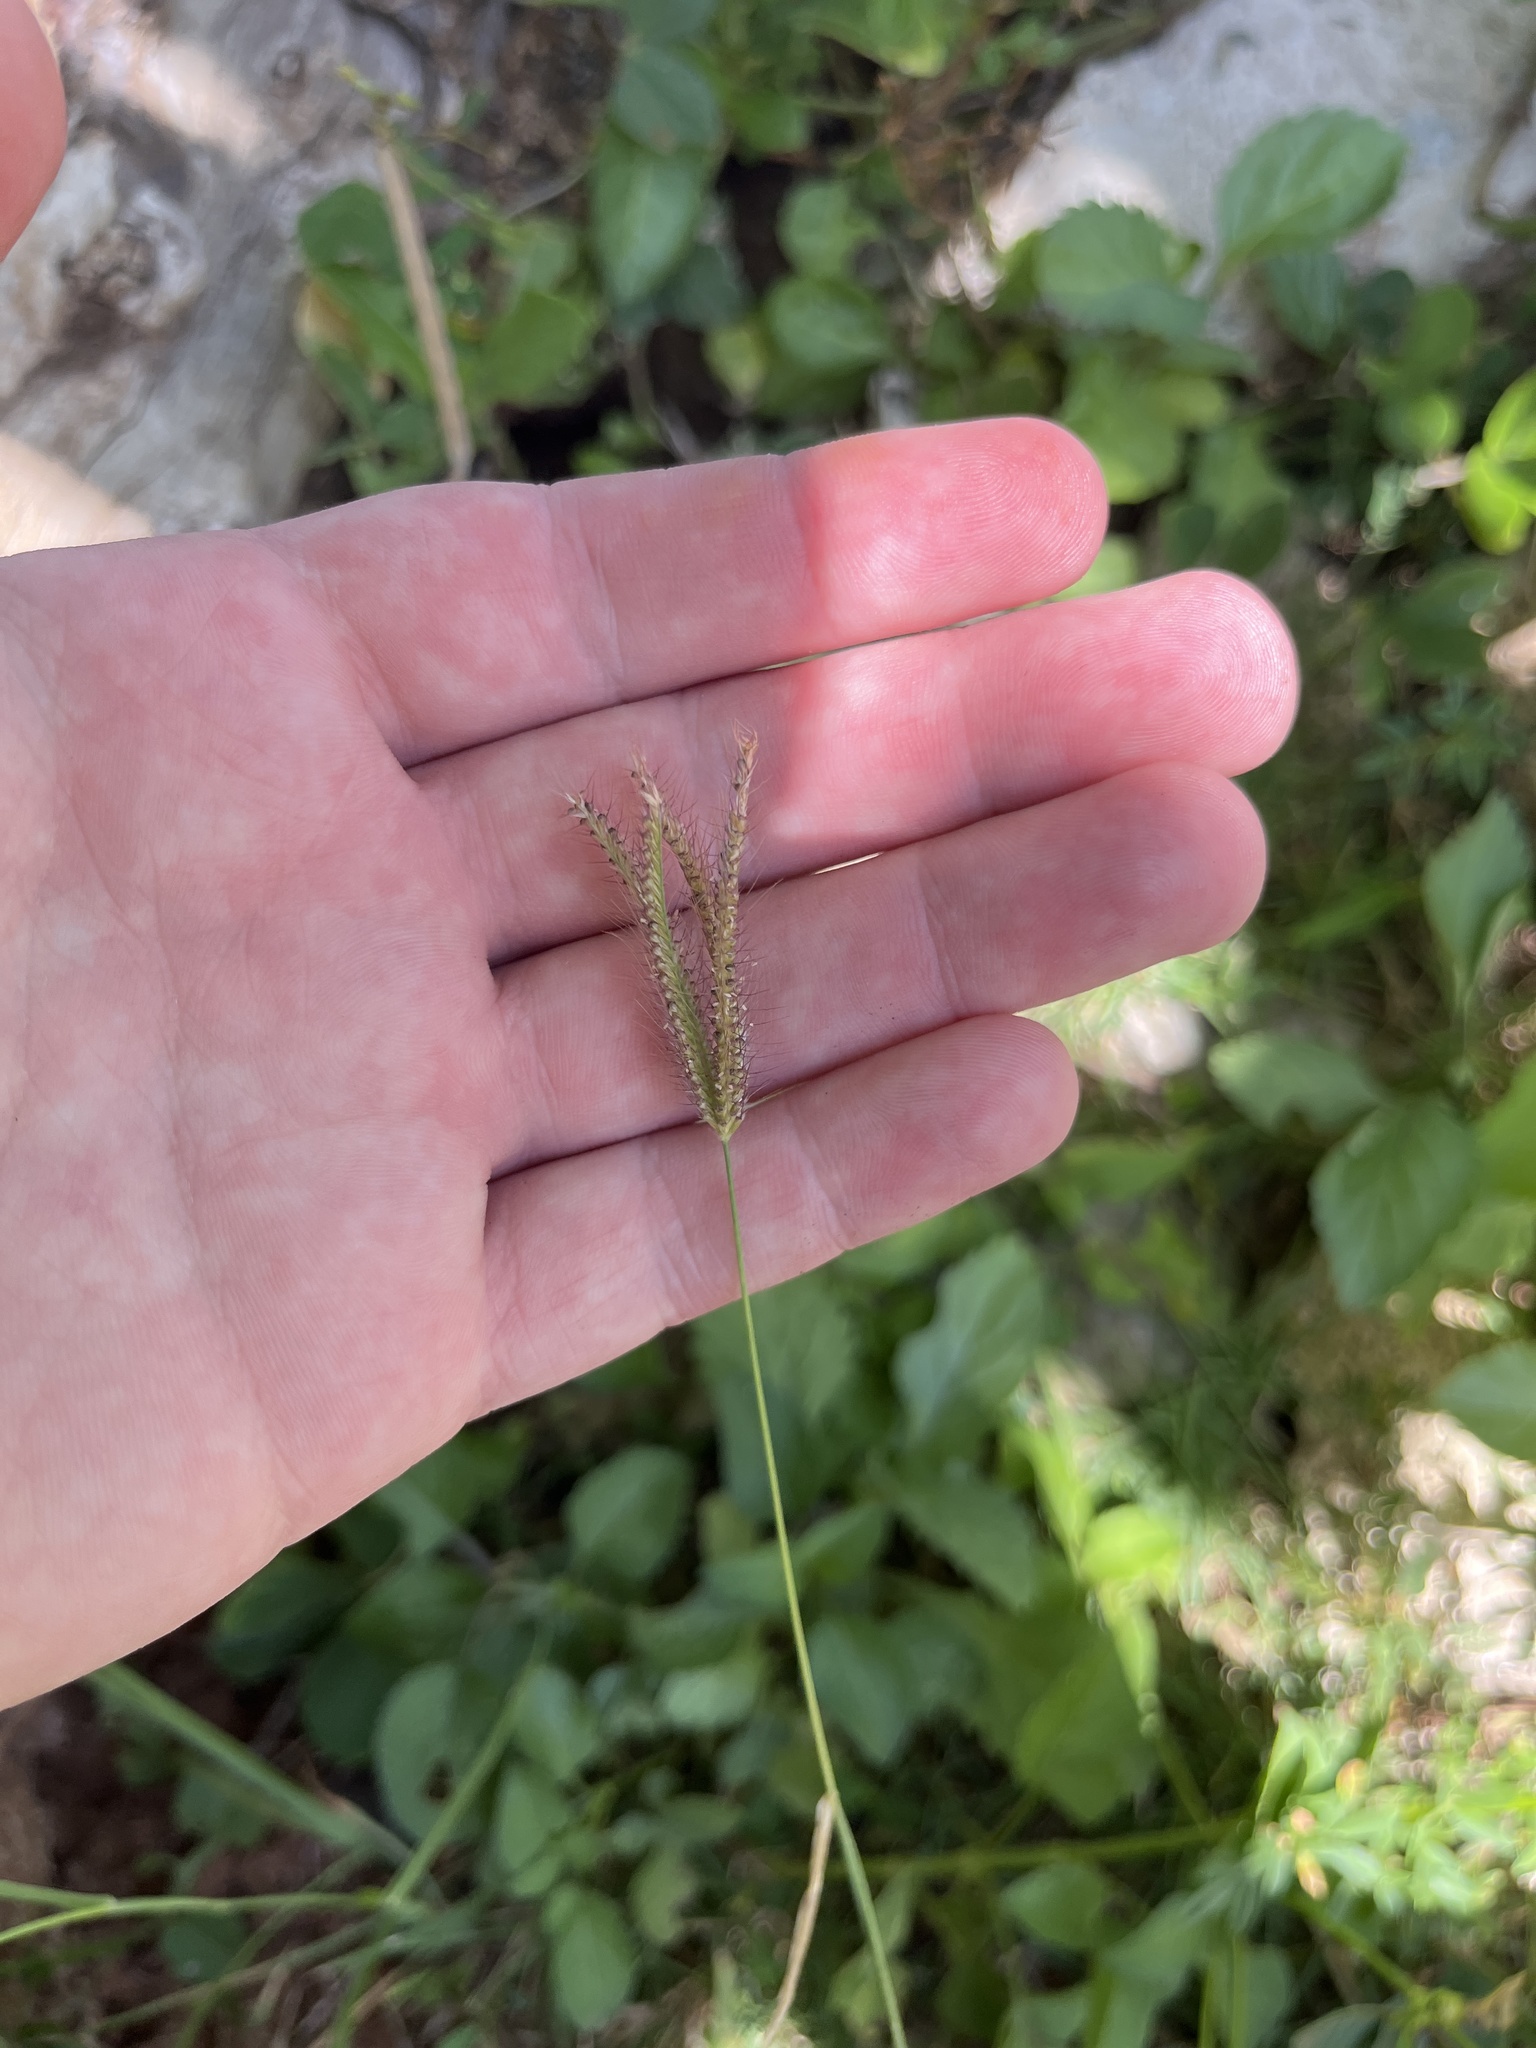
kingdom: Plantae
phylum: Tracheophyta
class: Liliopsida
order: Poales
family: Poaceae
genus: Chloris
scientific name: Chloris barbata
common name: Swollen fingergrass
